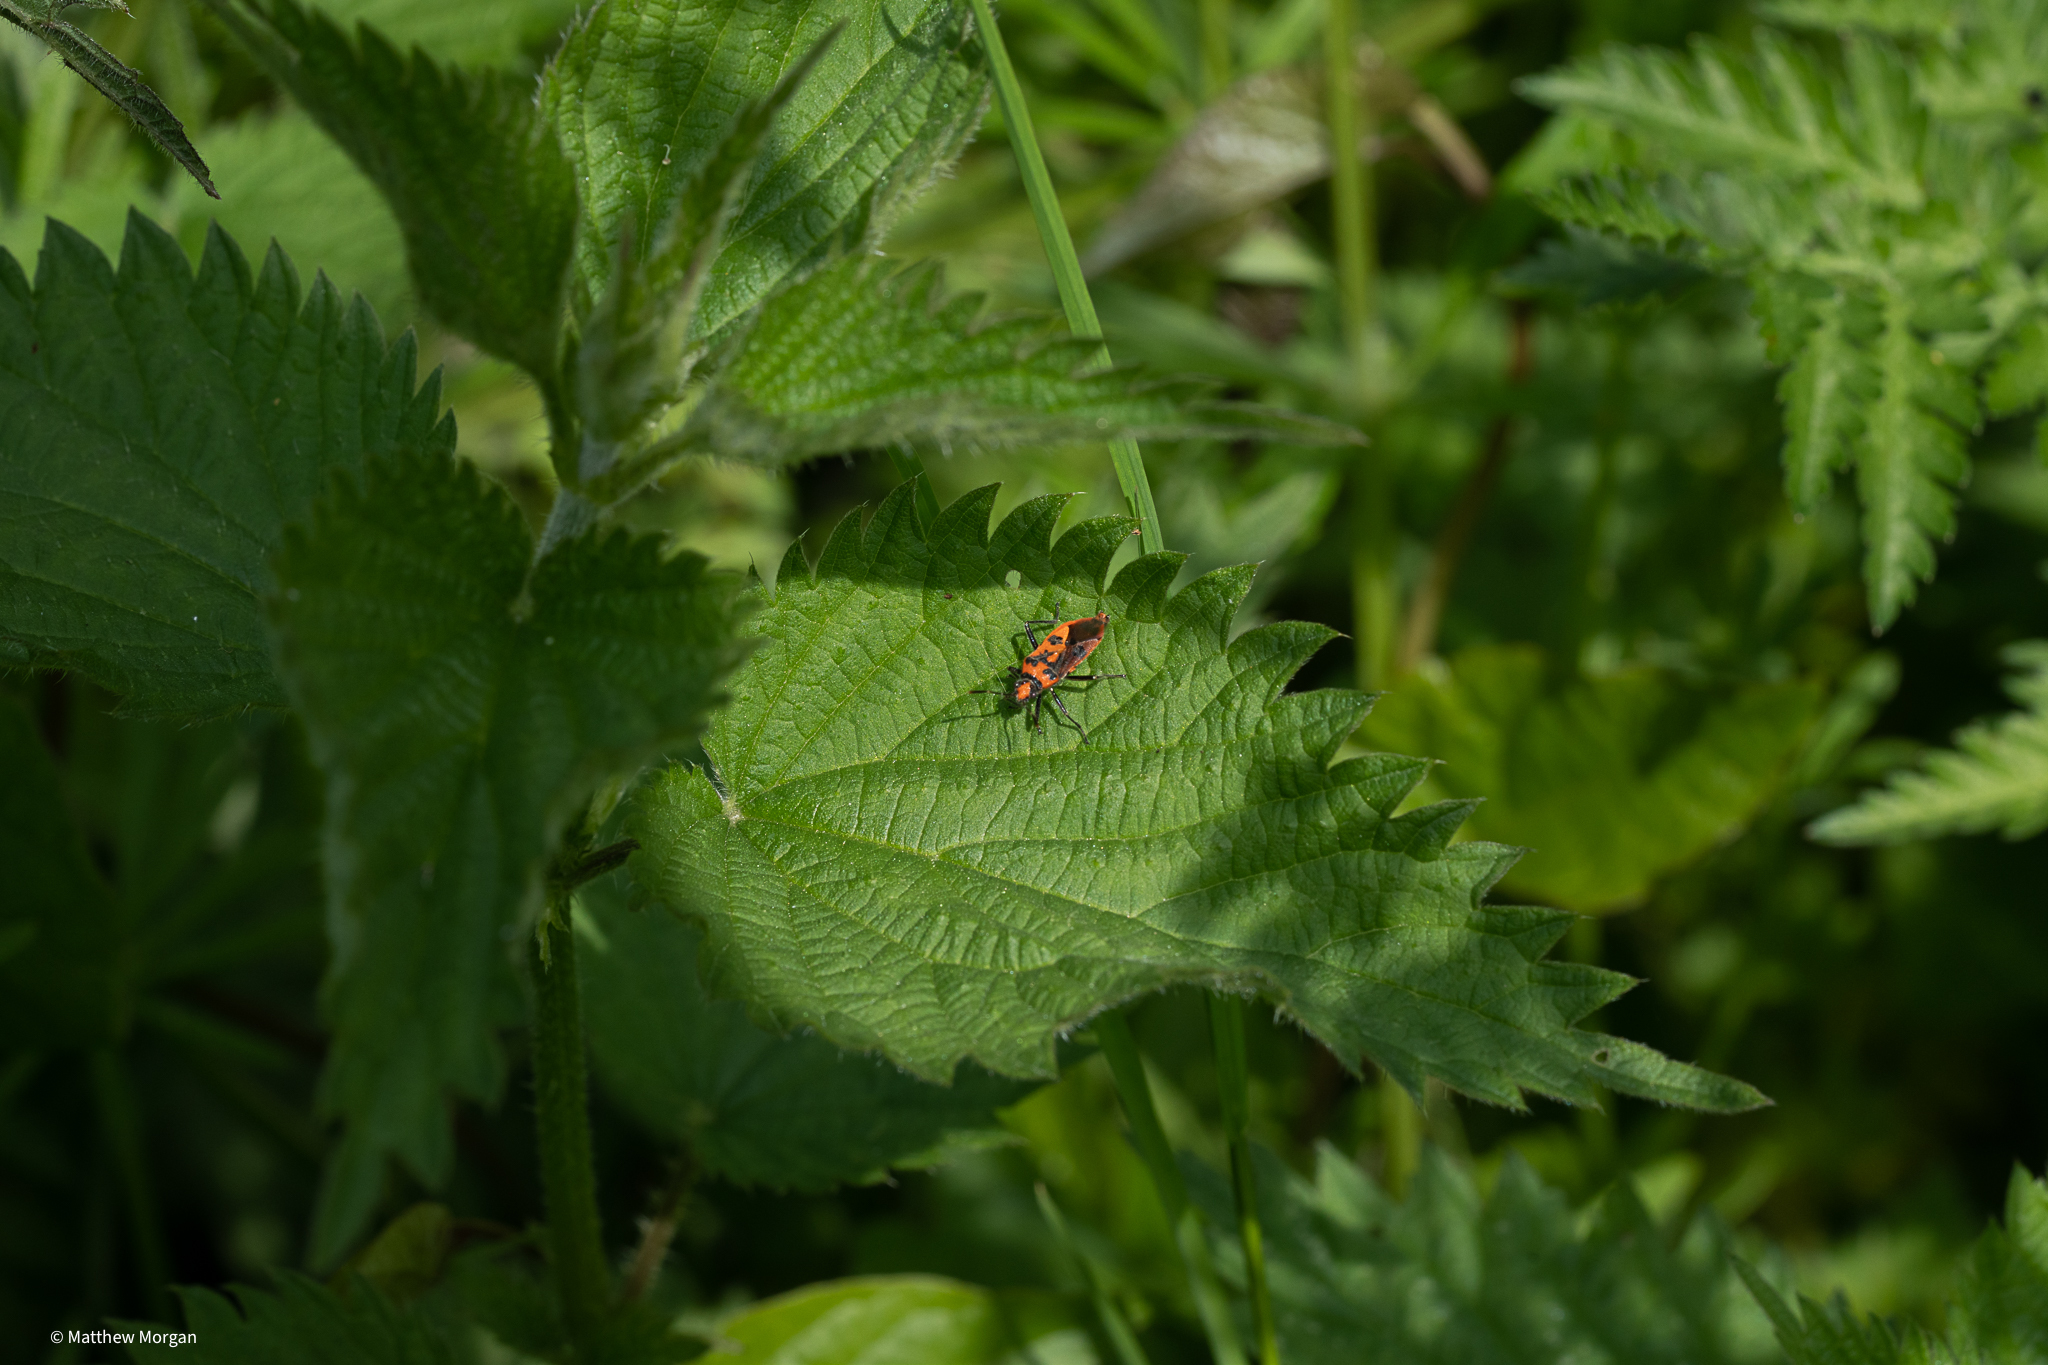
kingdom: Animalia
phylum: Arthropoda
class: Insecta
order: Hemiptera
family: Rhopalidae
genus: Corizus
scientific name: Corizus hyoscyami
